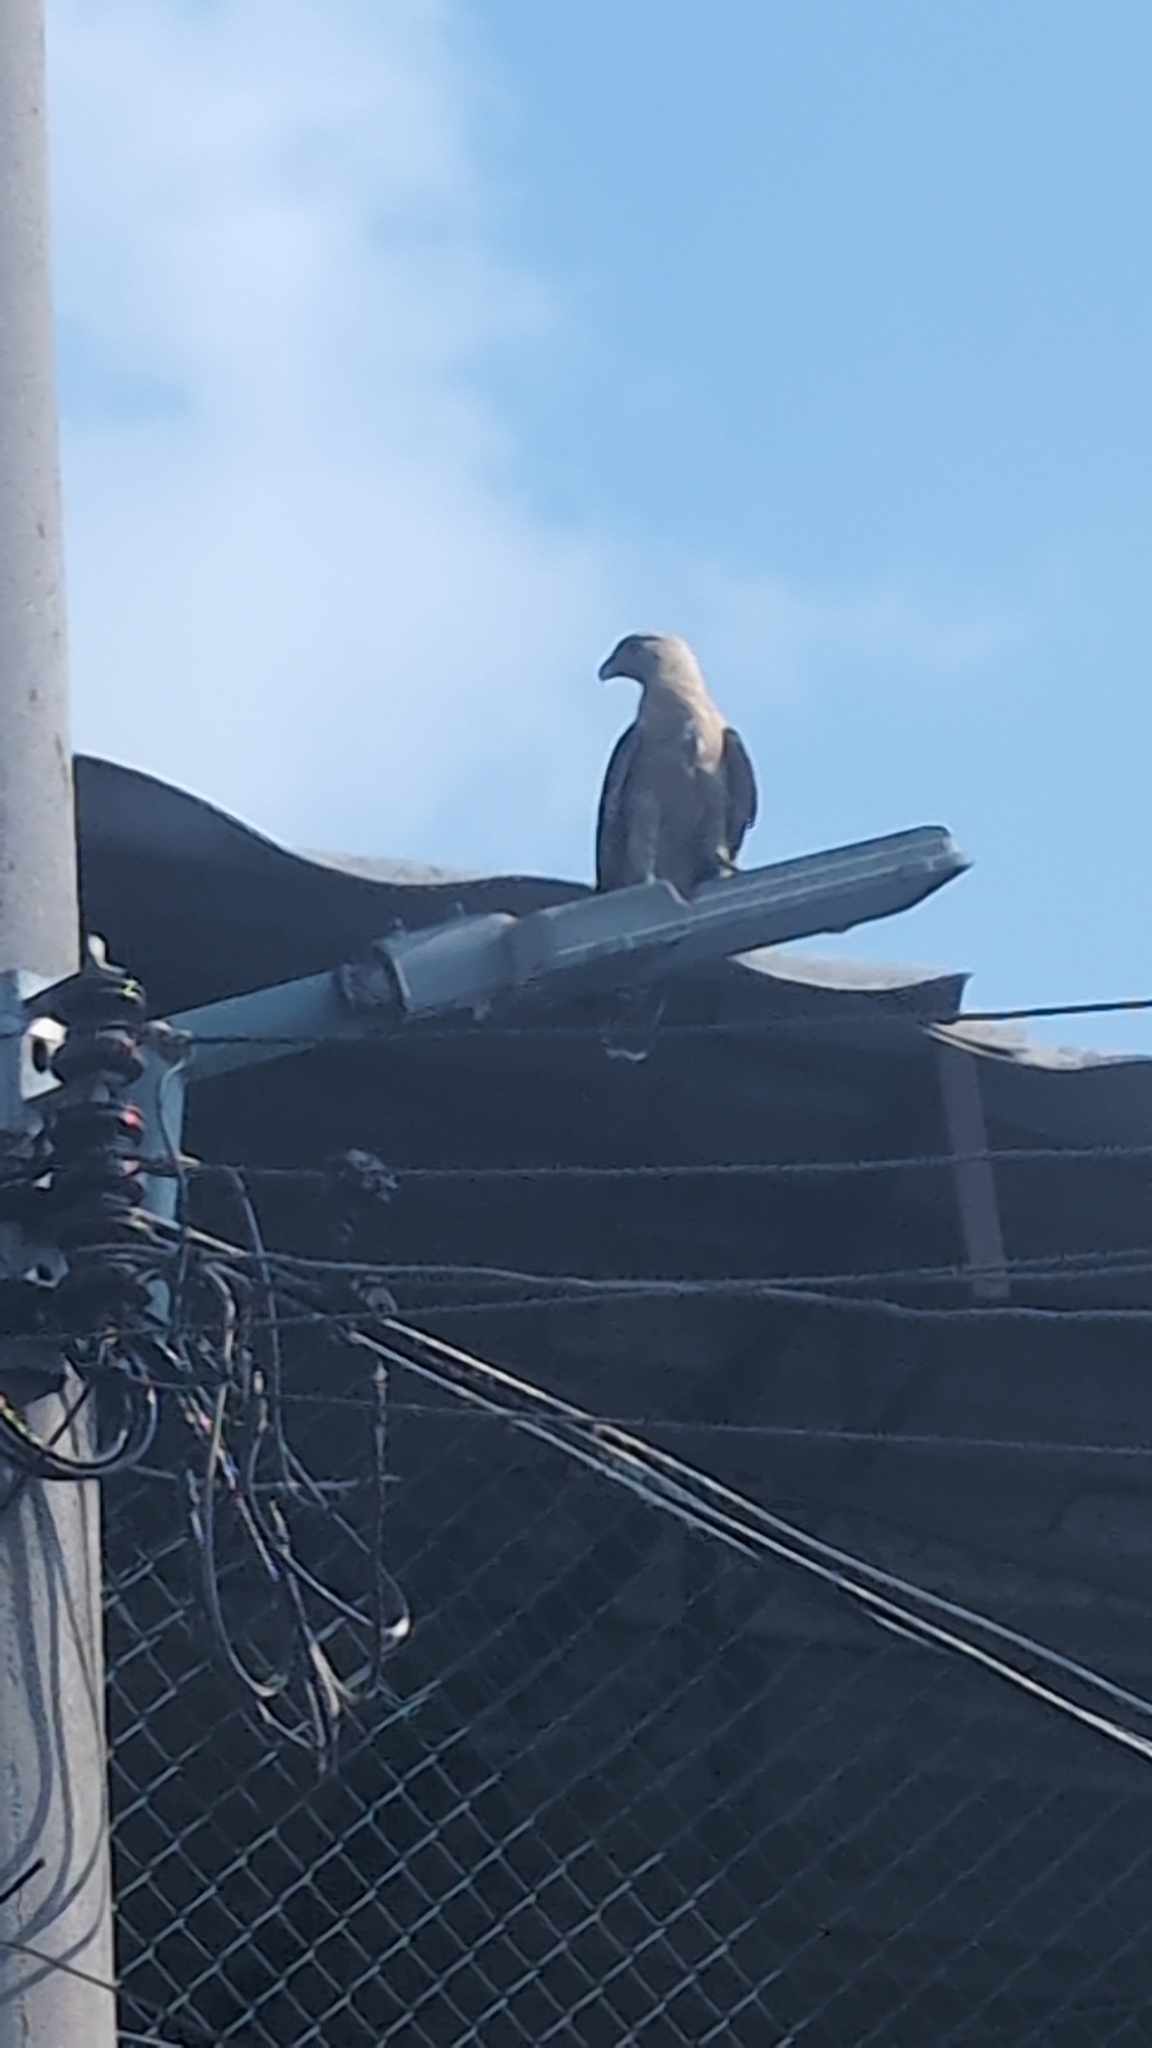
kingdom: Animalia
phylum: Chordata
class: Aves
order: Falconiformes
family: Falconidae
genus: Daptrius
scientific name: Daptrius
